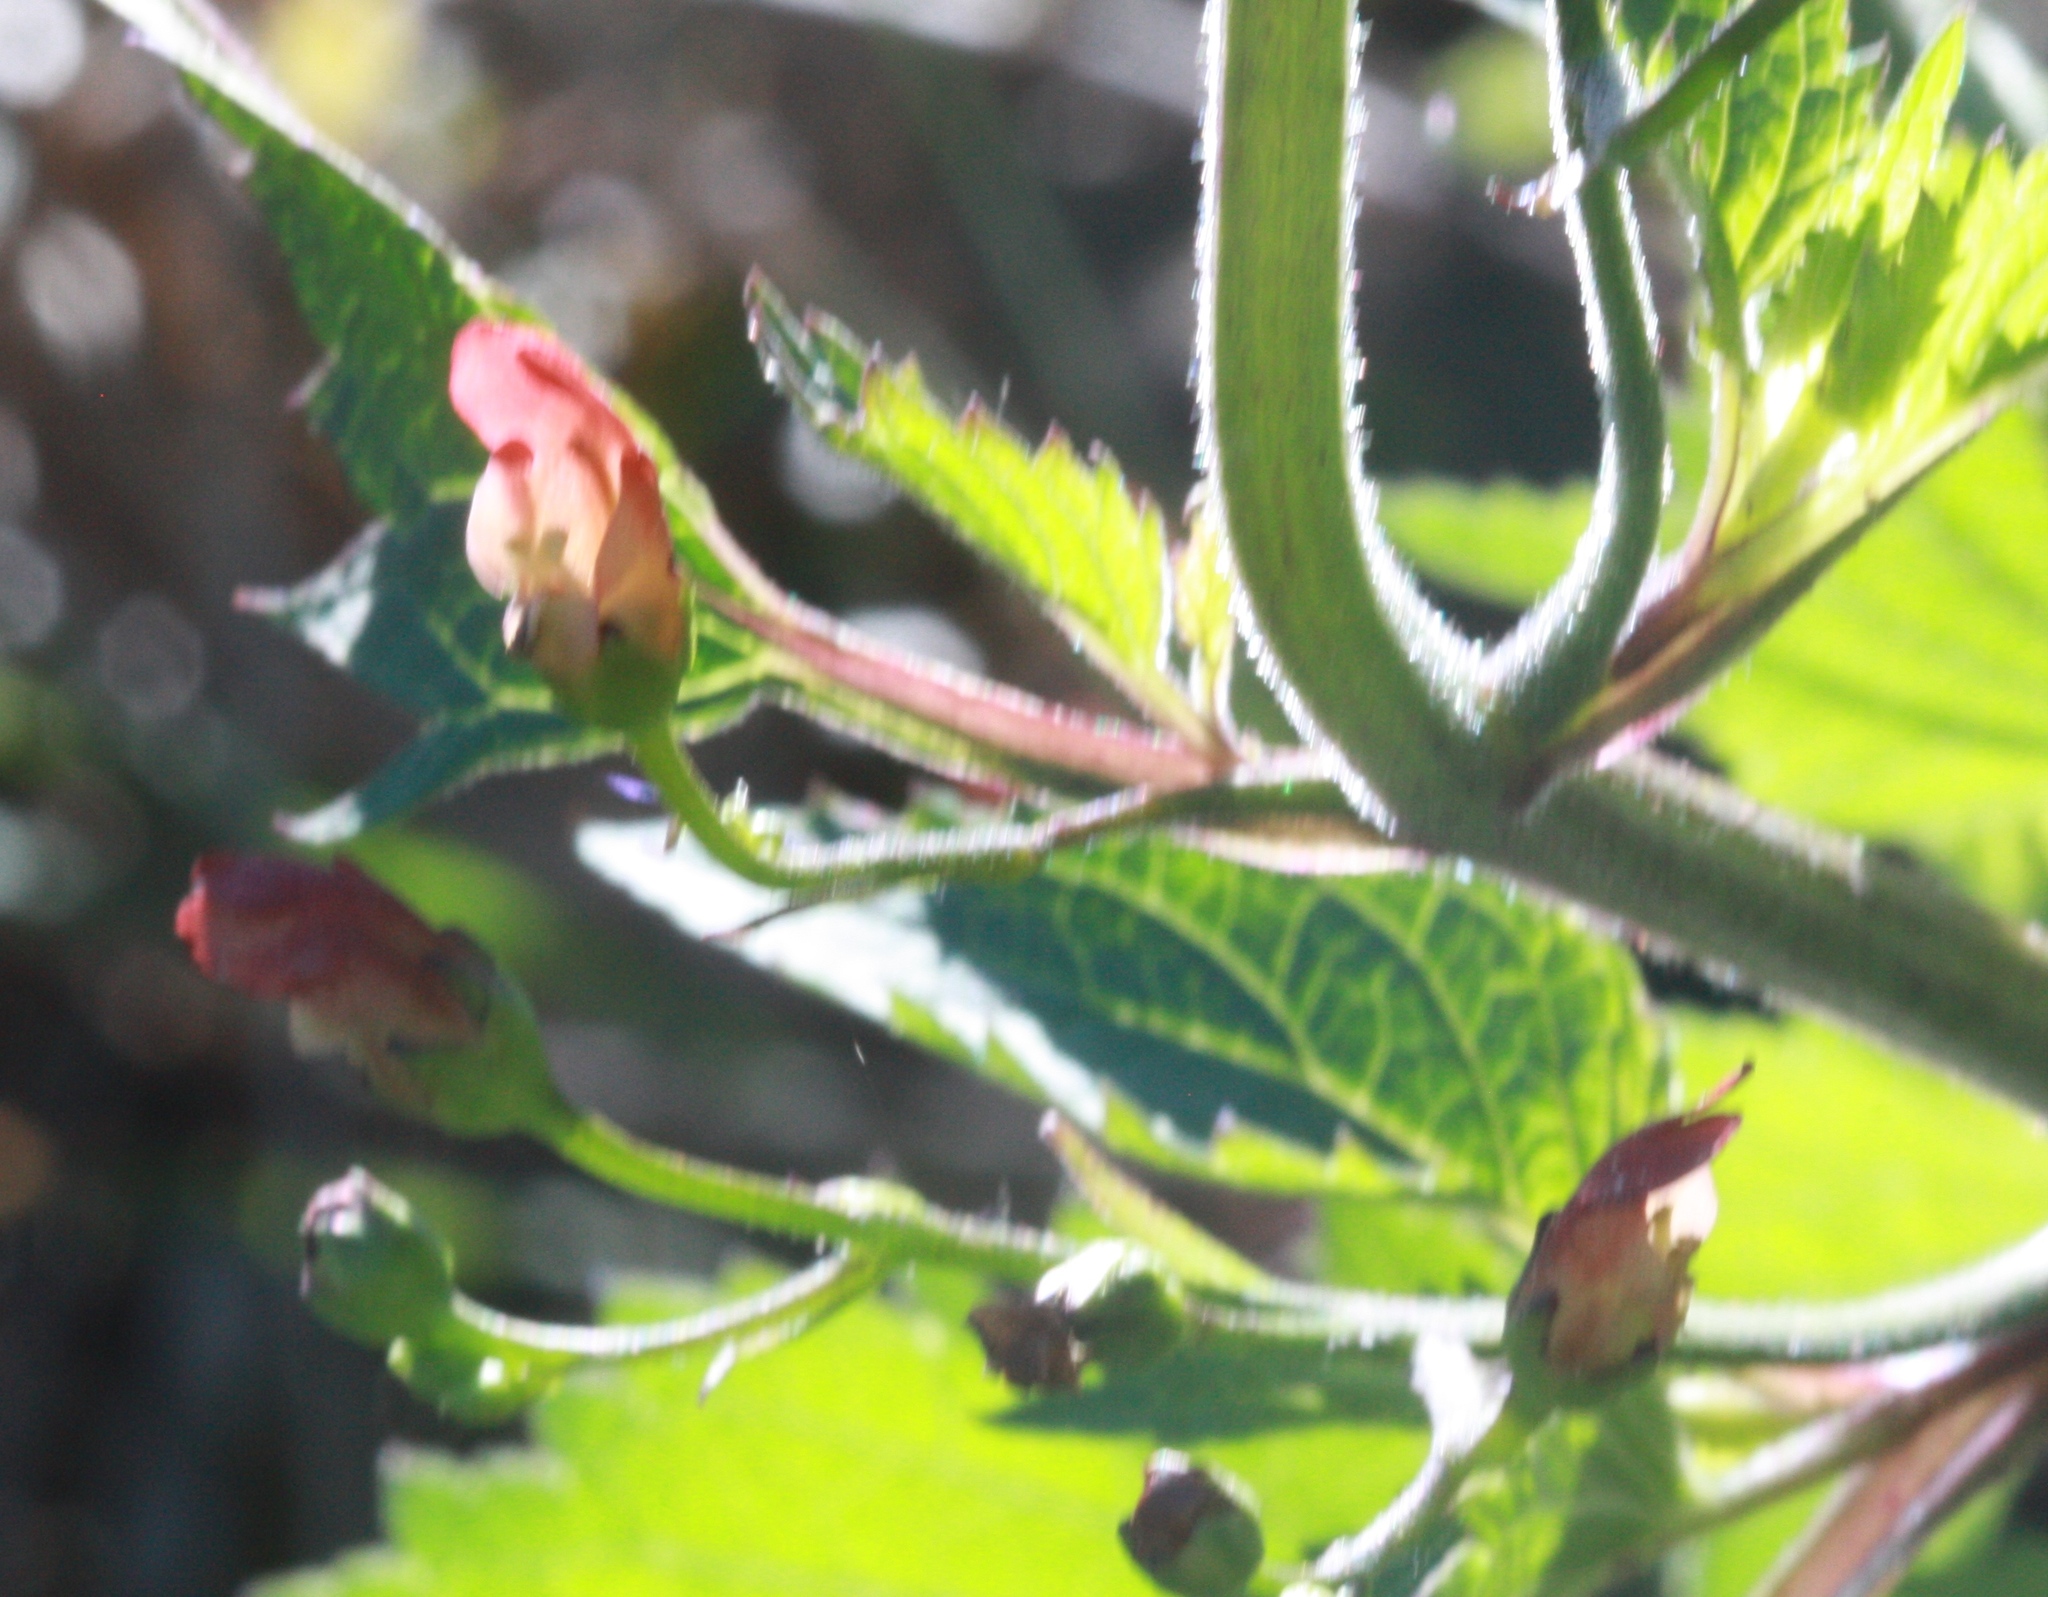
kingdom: Plantae
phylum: Tracheophyta
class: Magnoliopsida
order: Lamiales
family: Scrophulariaceae
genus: Scrophularia
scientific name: Scrophularia californica
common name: California figwort
